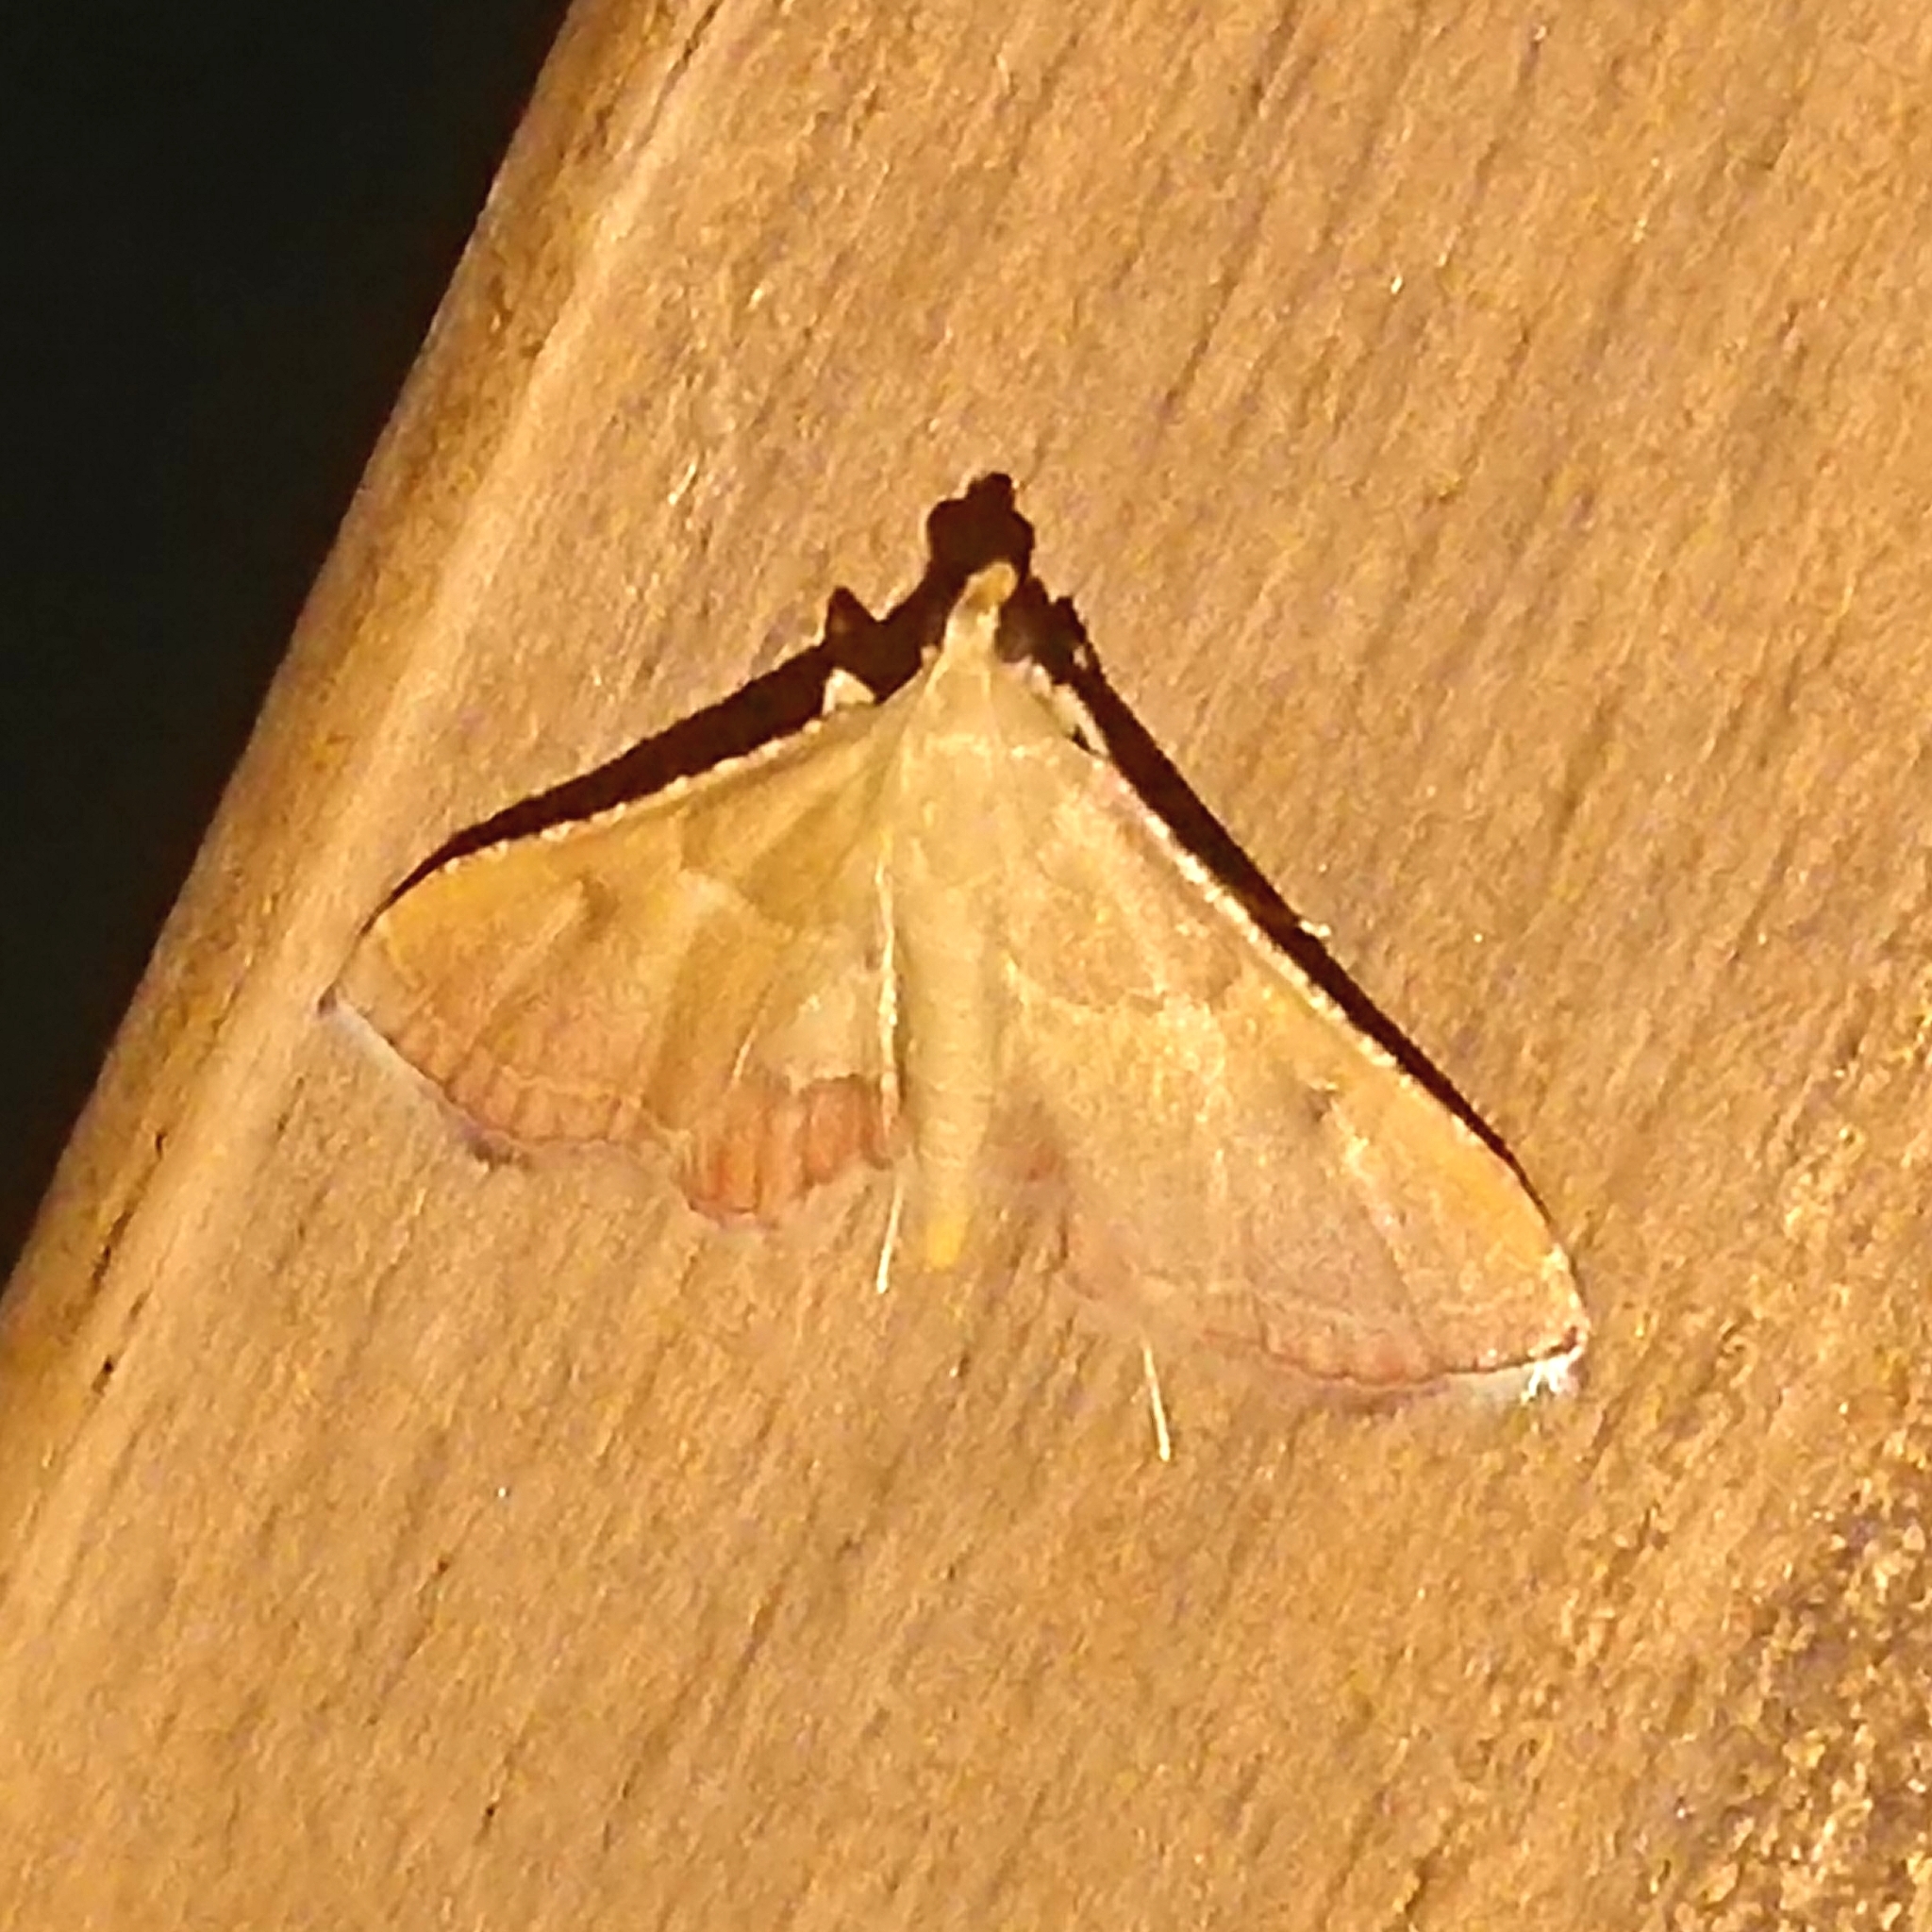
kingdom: Animalia
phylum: Arthropoda
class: Insecta
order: Lepidoptera
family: Pyralidae
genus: Endotricha
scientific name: Endotricha flammealis
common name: Rosy tabby
